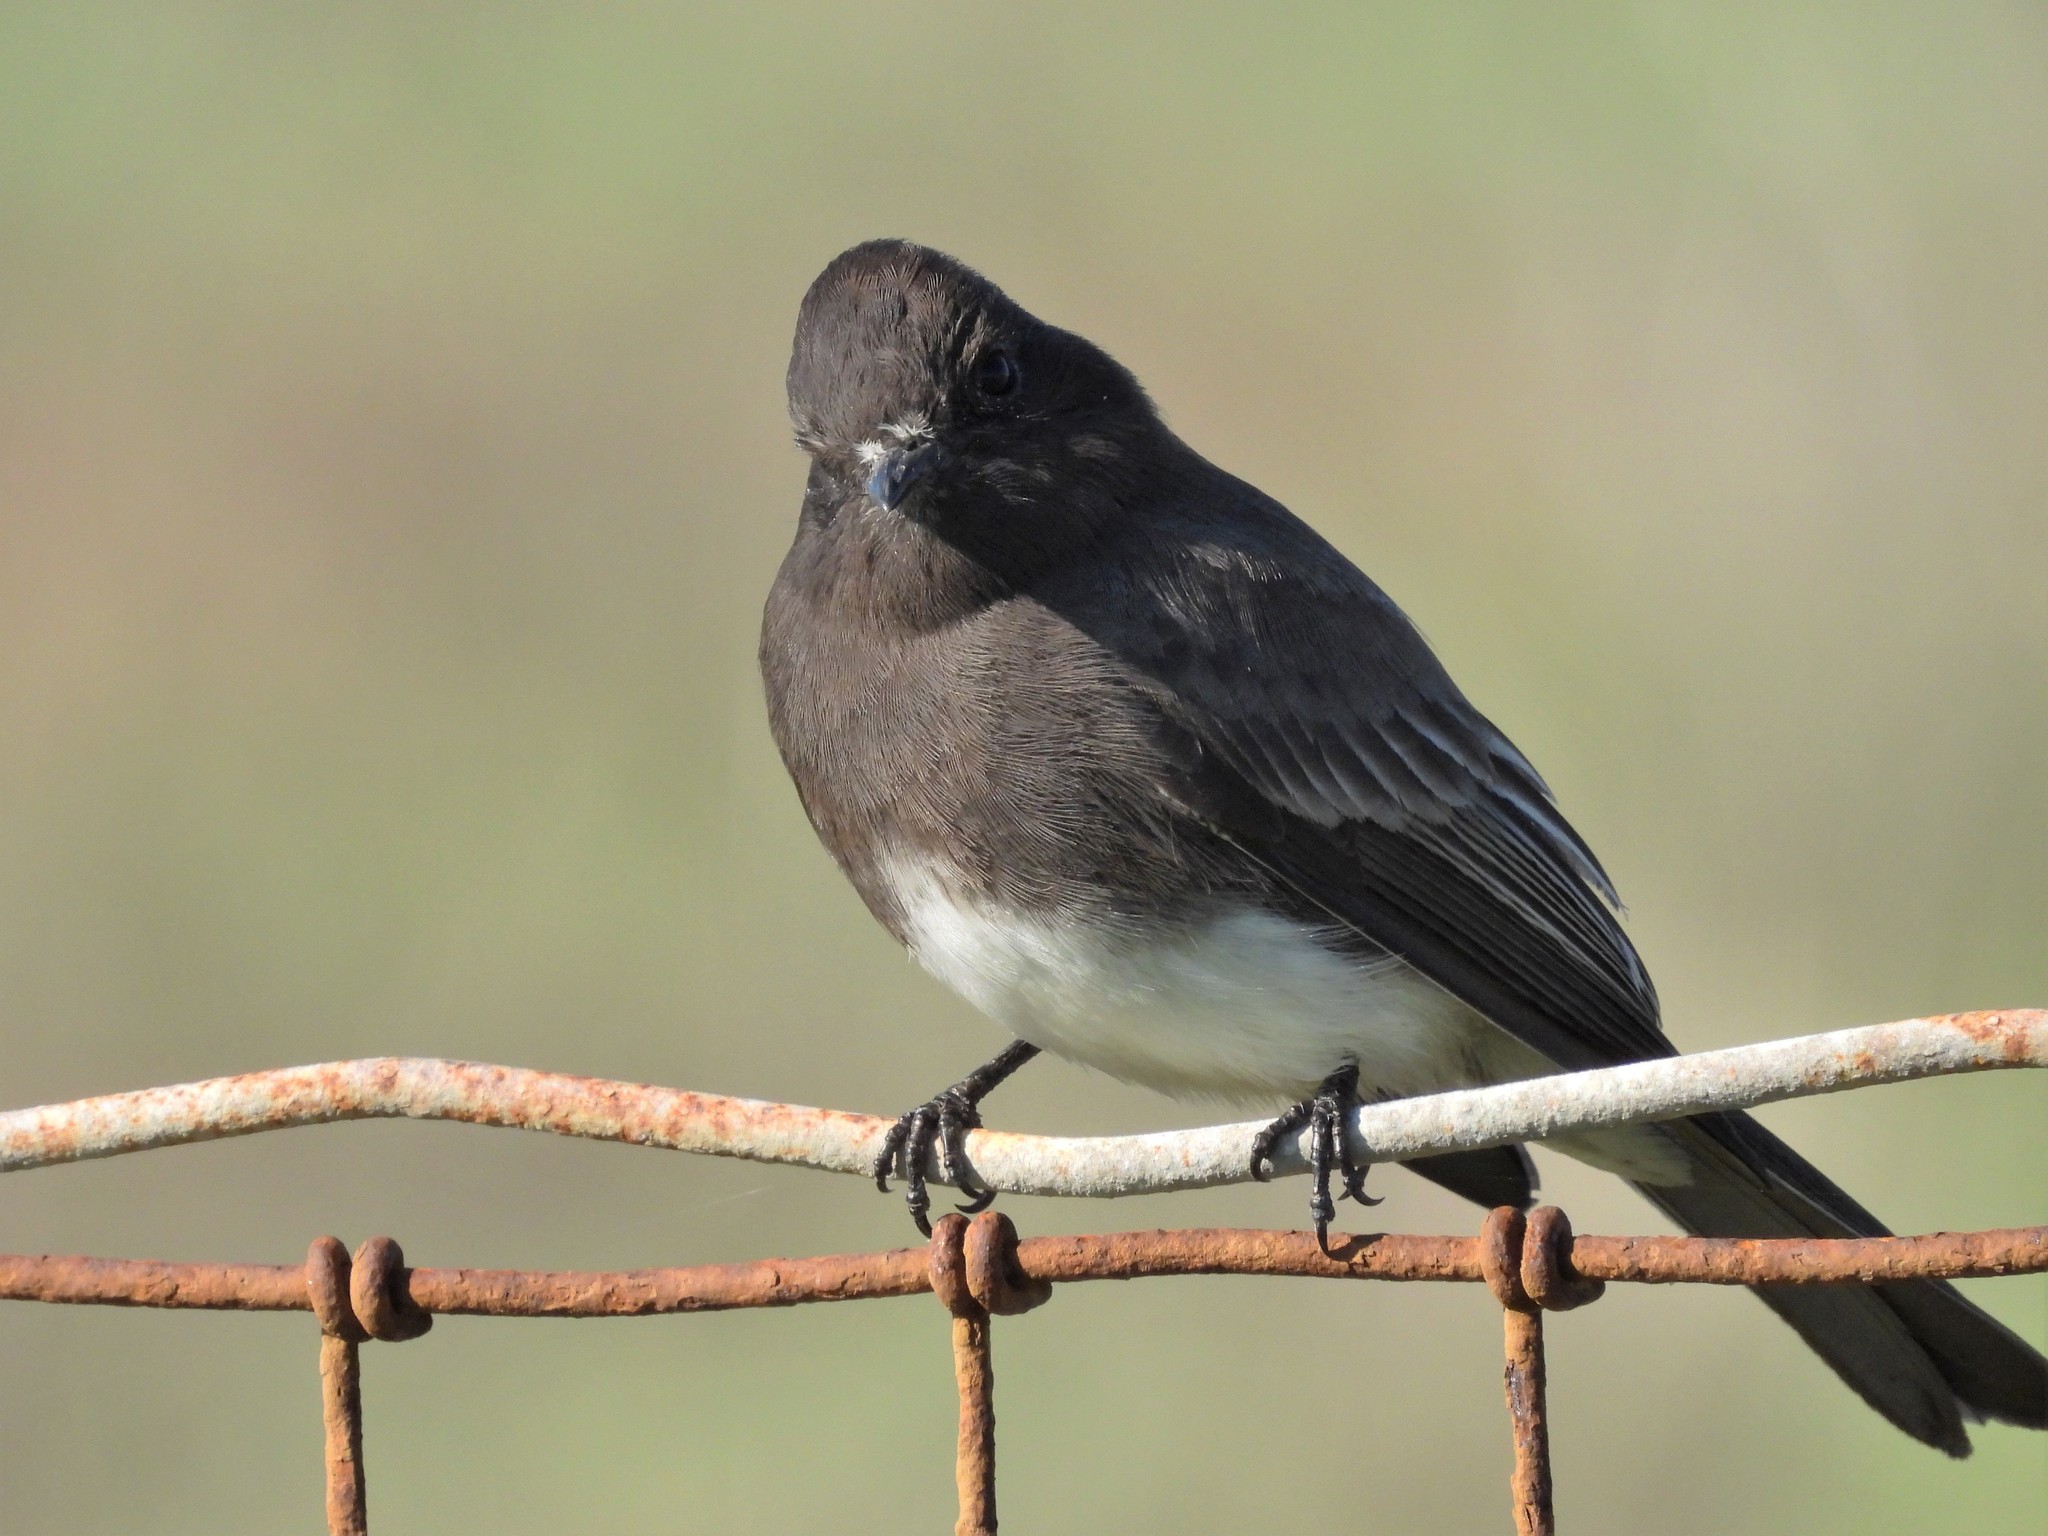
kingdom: Animalia
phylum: Chordata
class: Aves
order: Passeriformes
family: Tyrannidae
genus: Sayornis
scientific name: Sayornis nigricans
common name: Black phoebe
